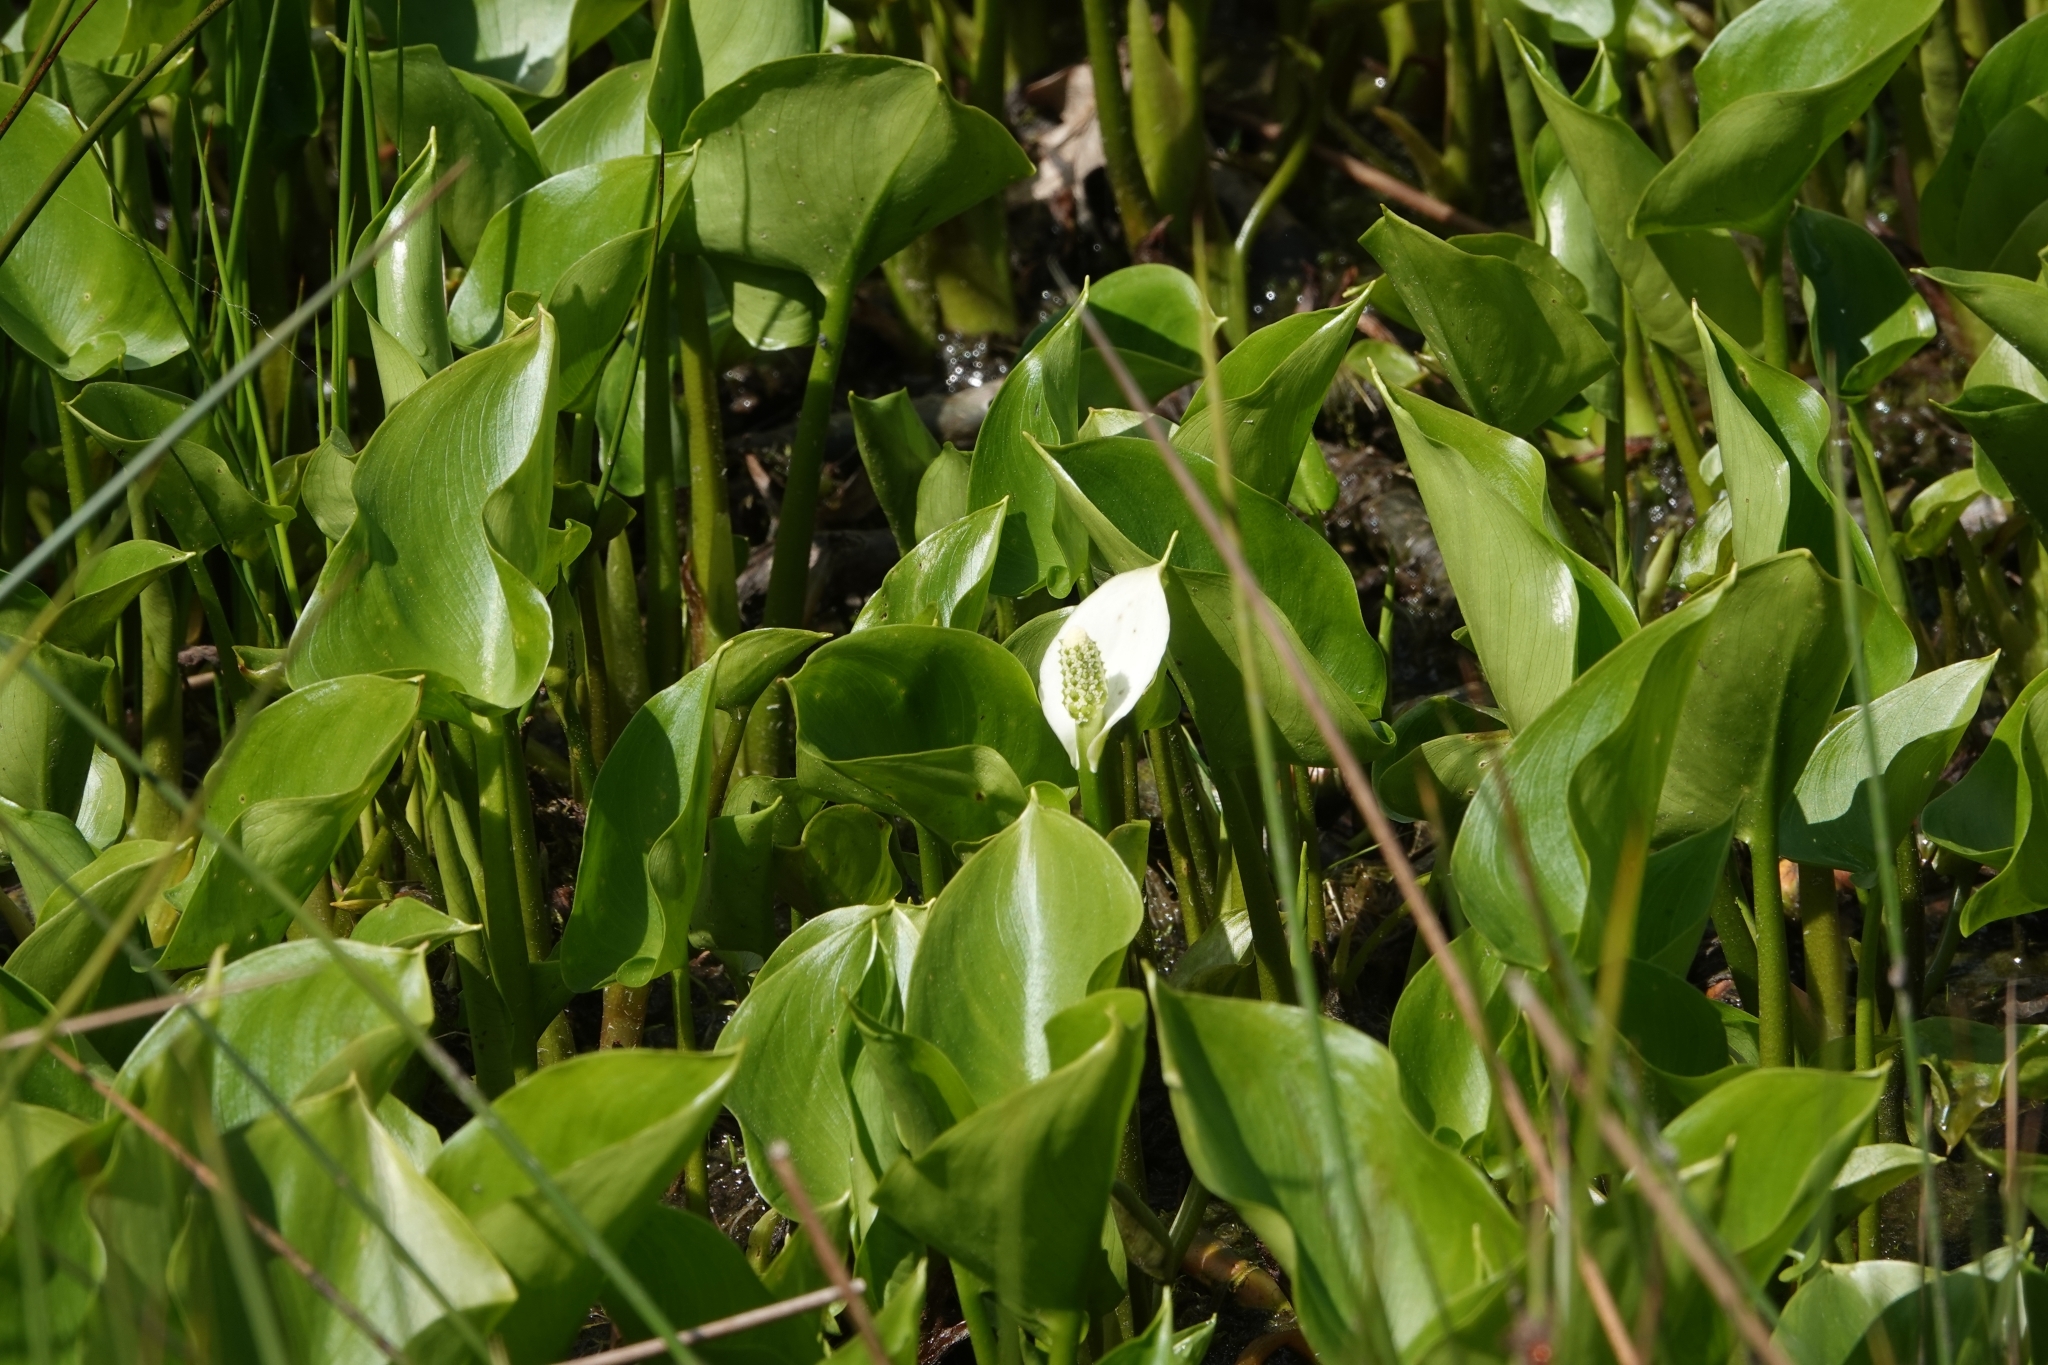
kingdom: Plantae
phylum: Tracheophyta
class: Liliopsida
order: Alismatales
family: Araceae
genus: Calla
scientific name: Calla palustris
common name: Bog arum
